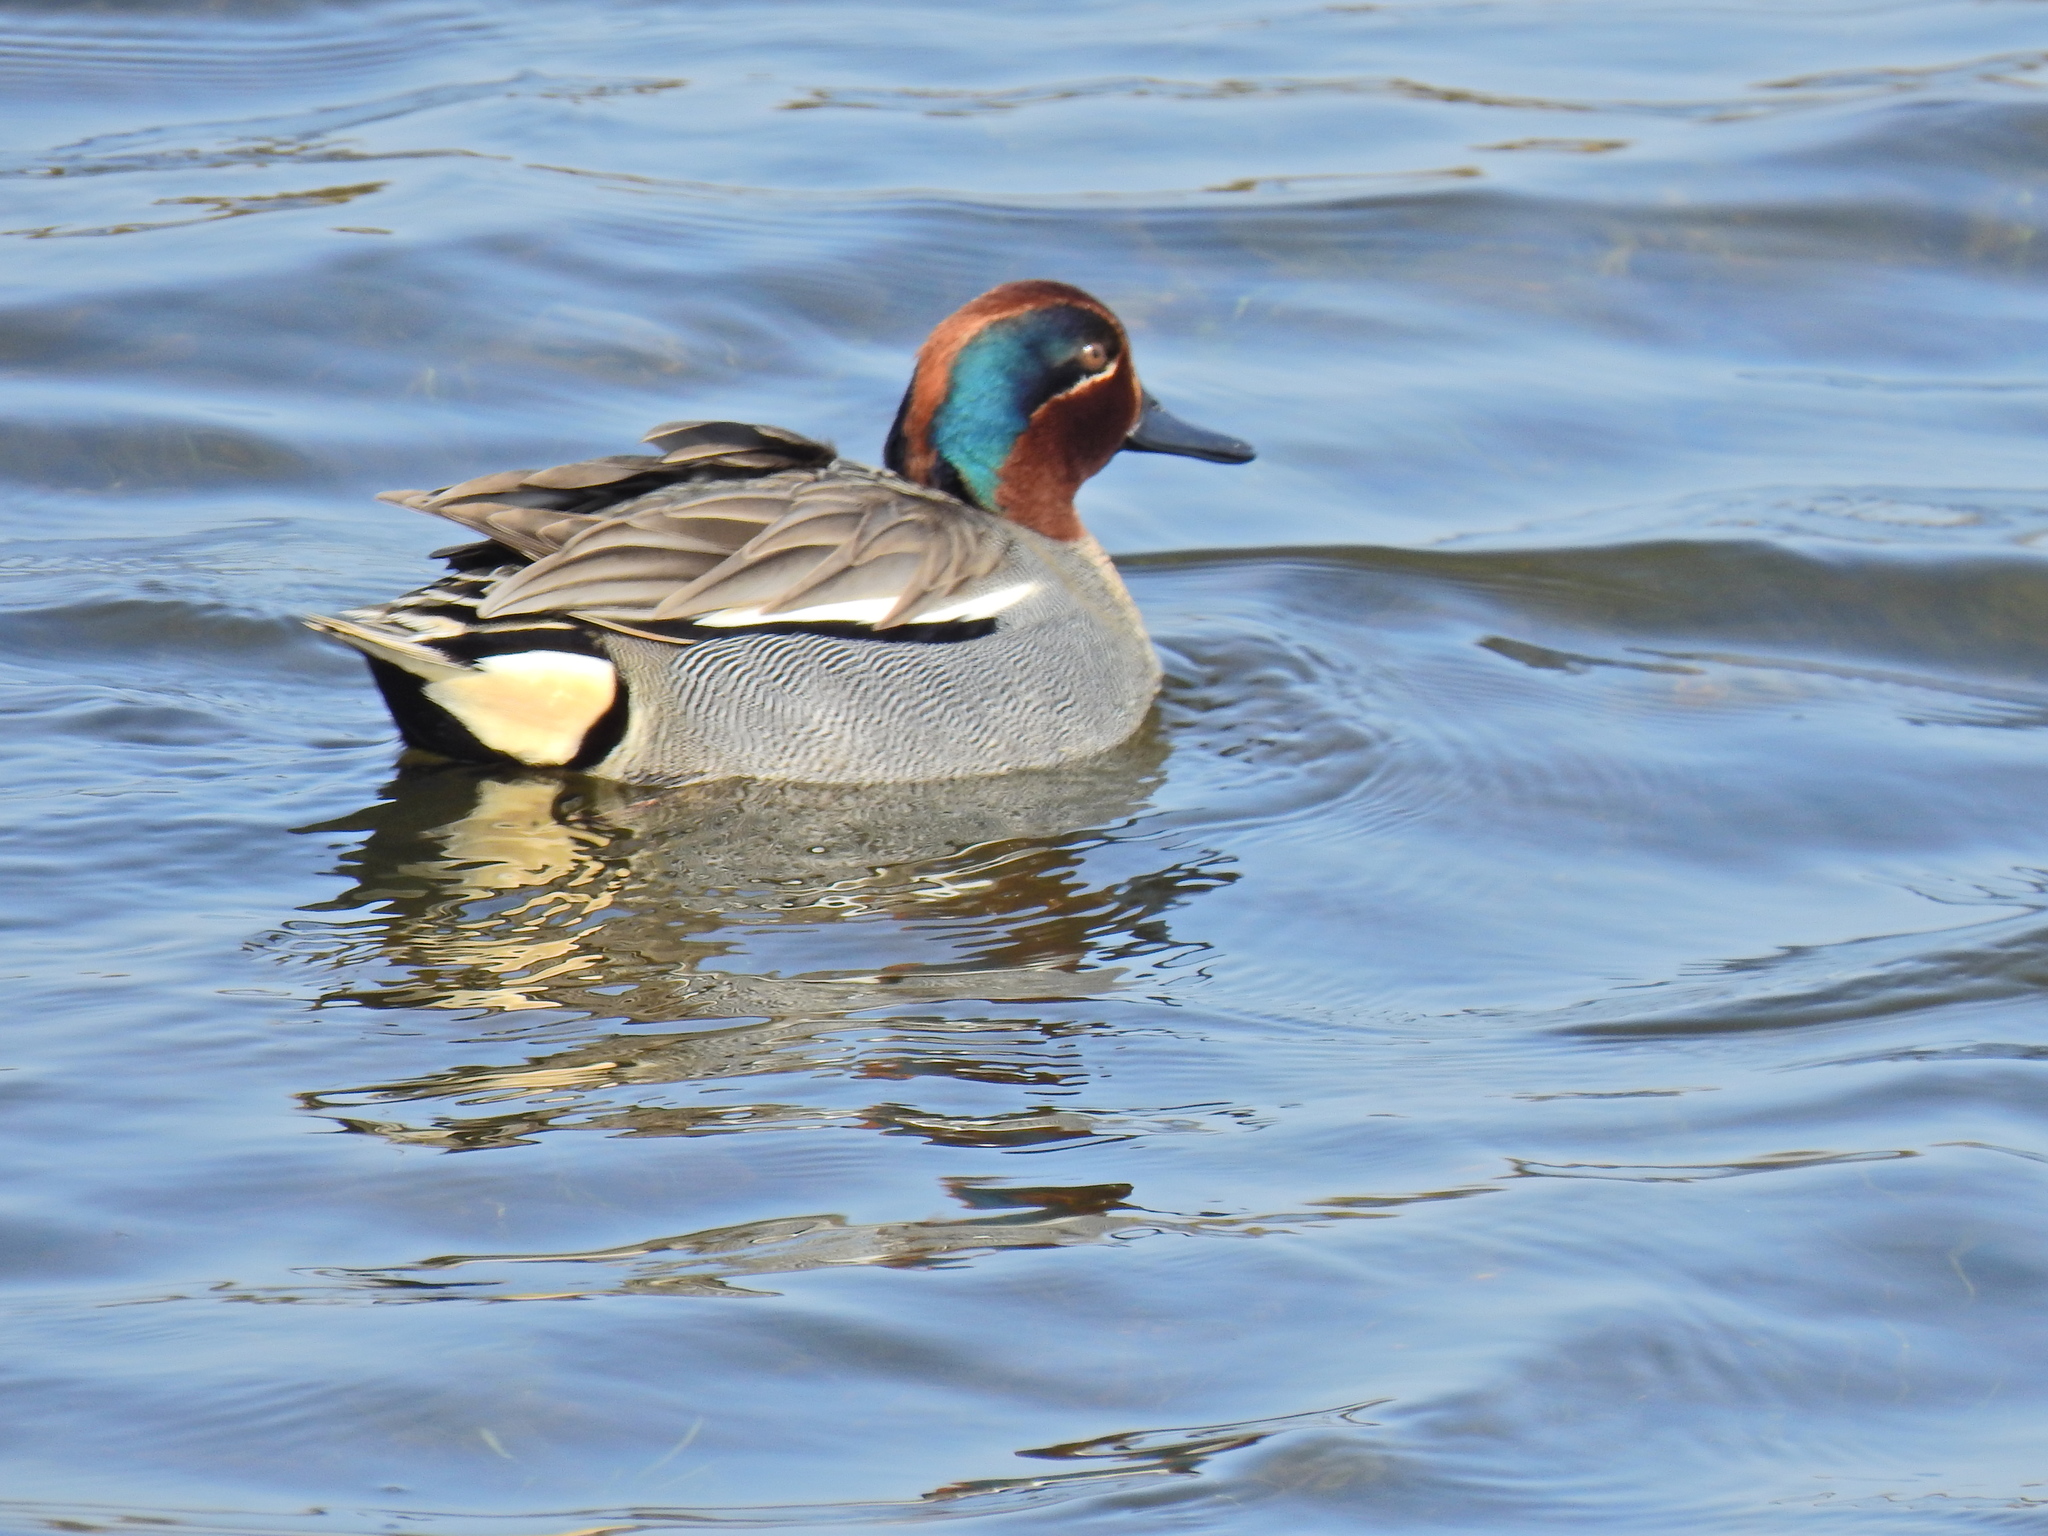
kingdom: Animalia
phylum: Chordata
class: Aves
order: Anseriformes
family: Anatidae
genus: Anas
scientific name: Anas crecca
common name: Eurasian teal
